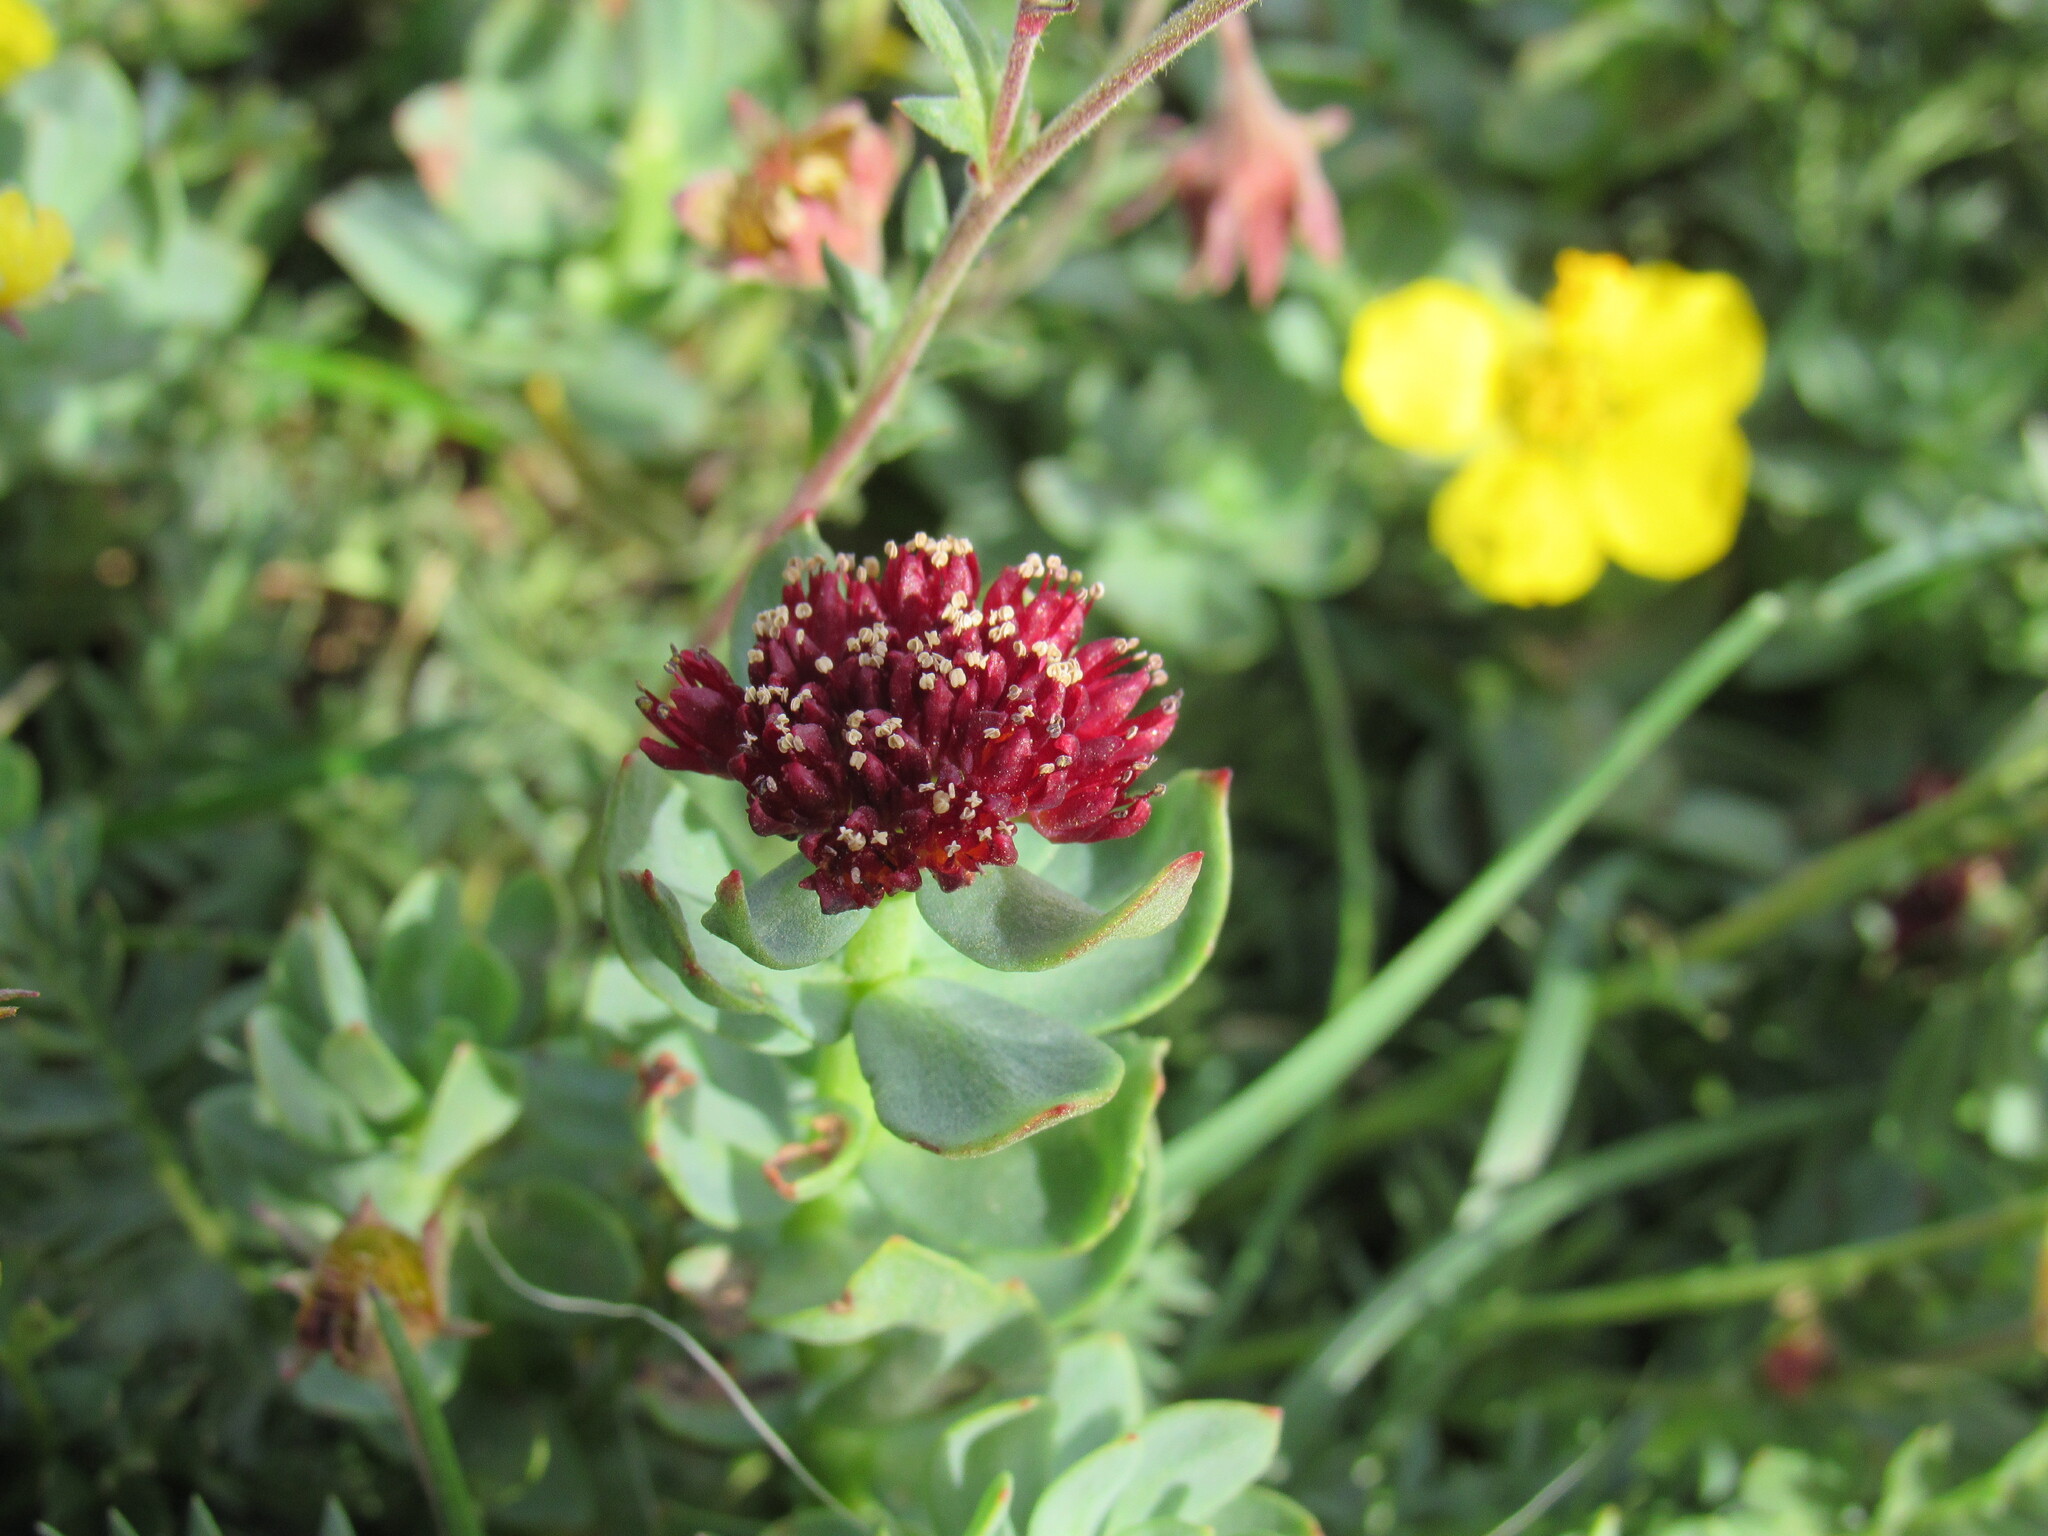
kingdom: Plantae
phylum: Tracheophyta
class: Magnoliopsida
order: Saxifragales
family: Crassulaceae
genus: Rhodiola
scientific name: Rhodiola integrifolia
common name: Western roseroot
